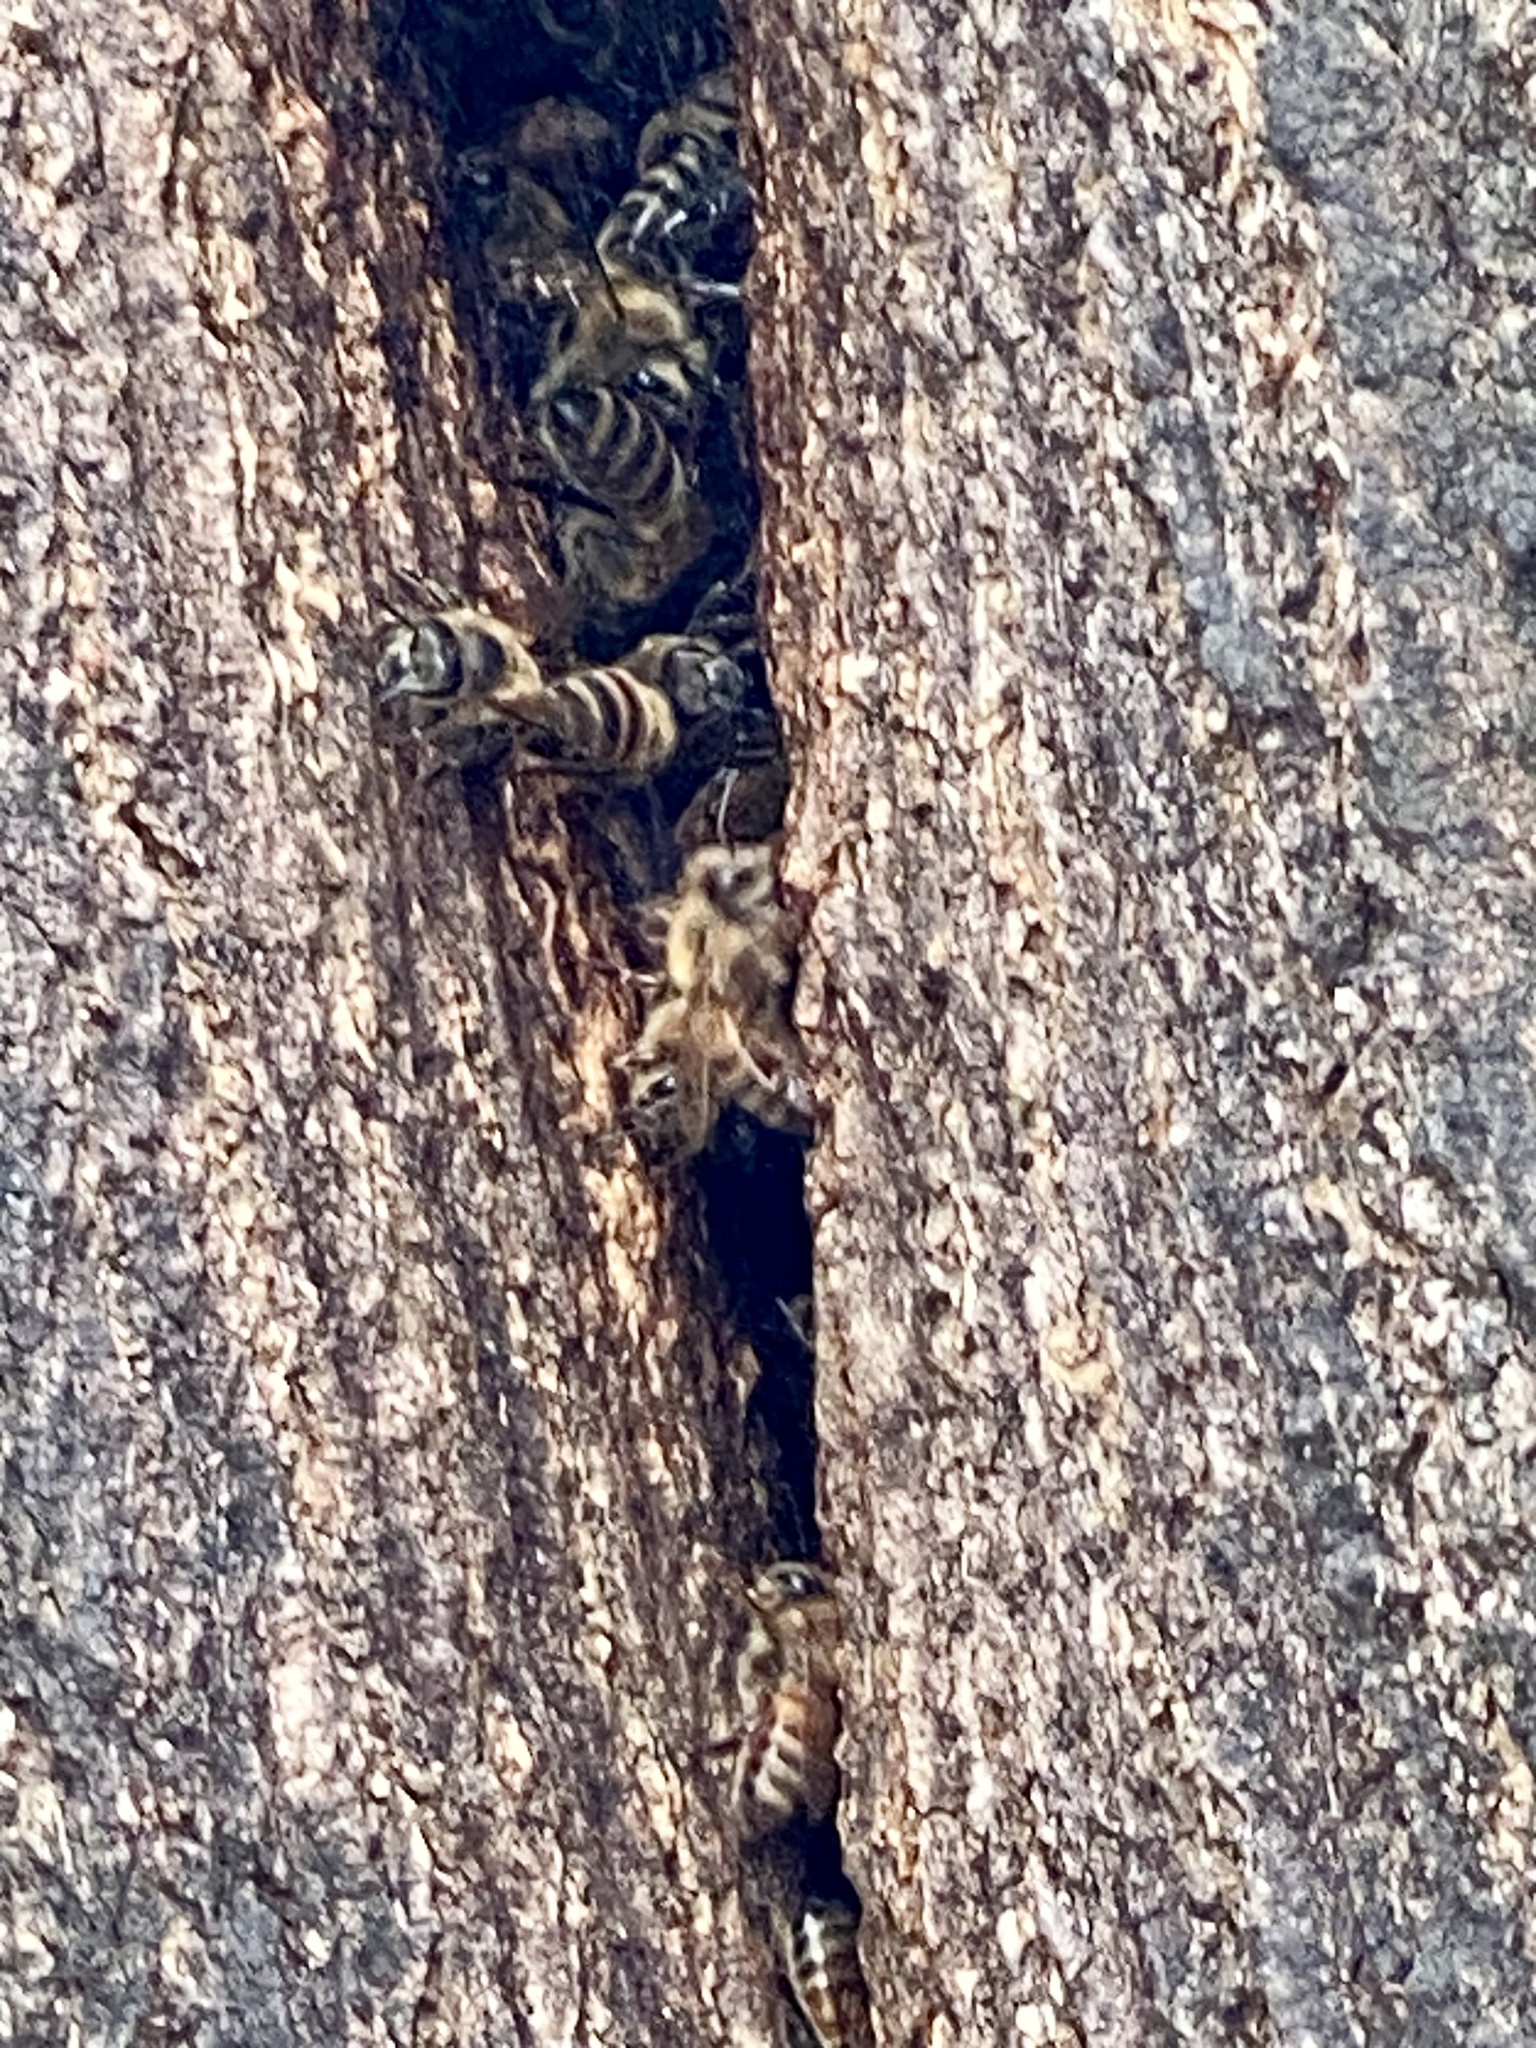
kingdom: Animalia
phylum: Arthropoda
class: Insecta
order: Hymenoptera
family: Apidae
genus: Apis
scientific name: Apis mellifera
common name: Honey bee
